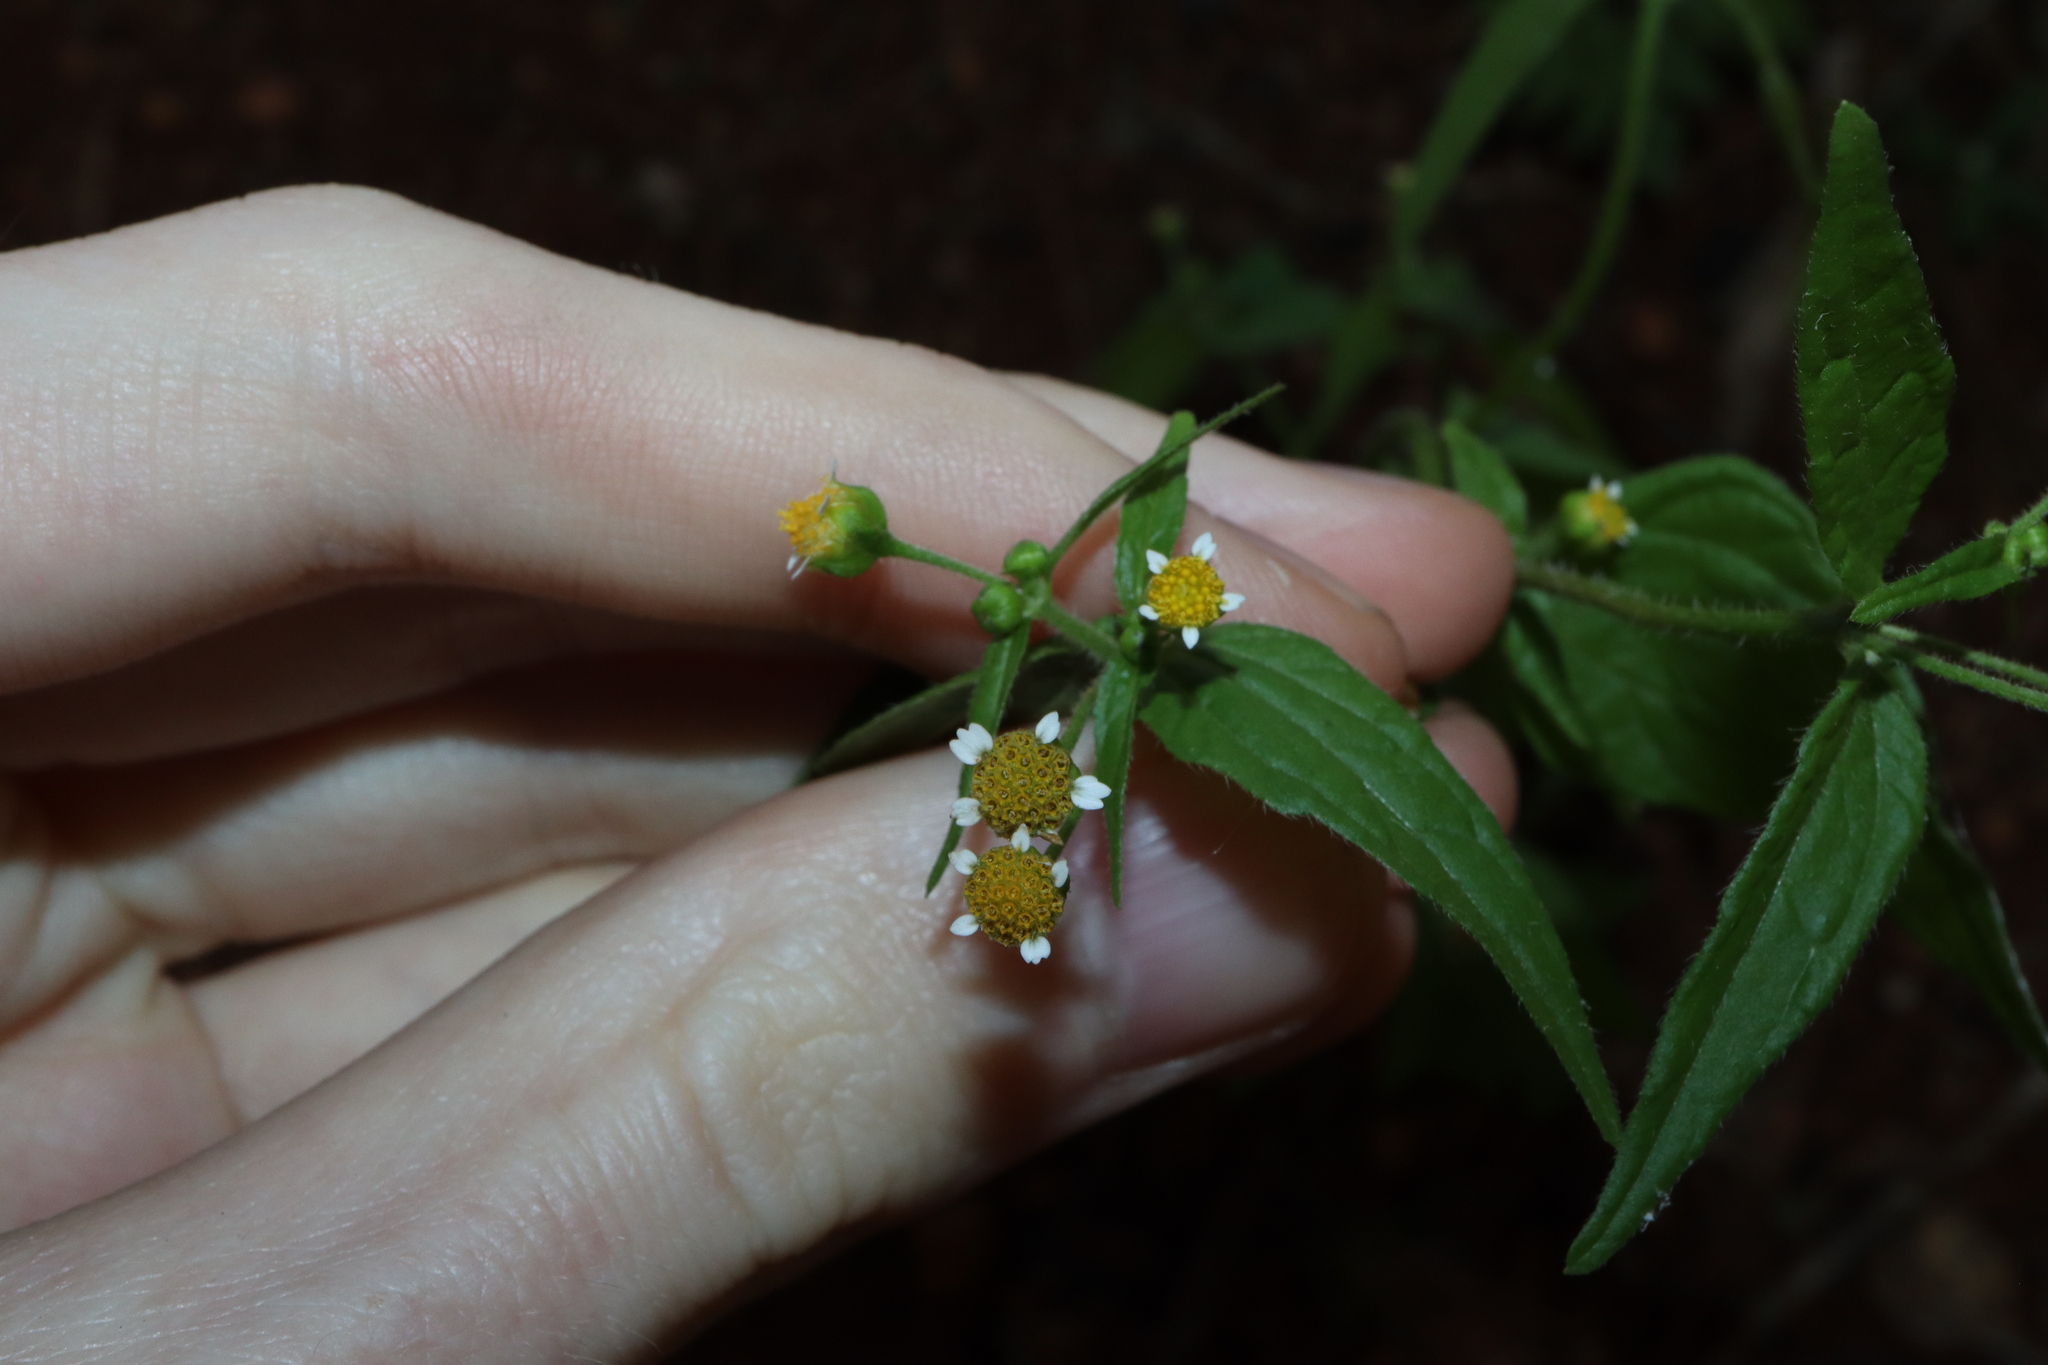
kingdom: Plantae
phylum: Tracheophyta
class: Magnoliopsida
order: Asterales
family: Asteraceae
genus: Galinsoga
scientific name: Galinsoga parviflora
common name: Gallant soldier
